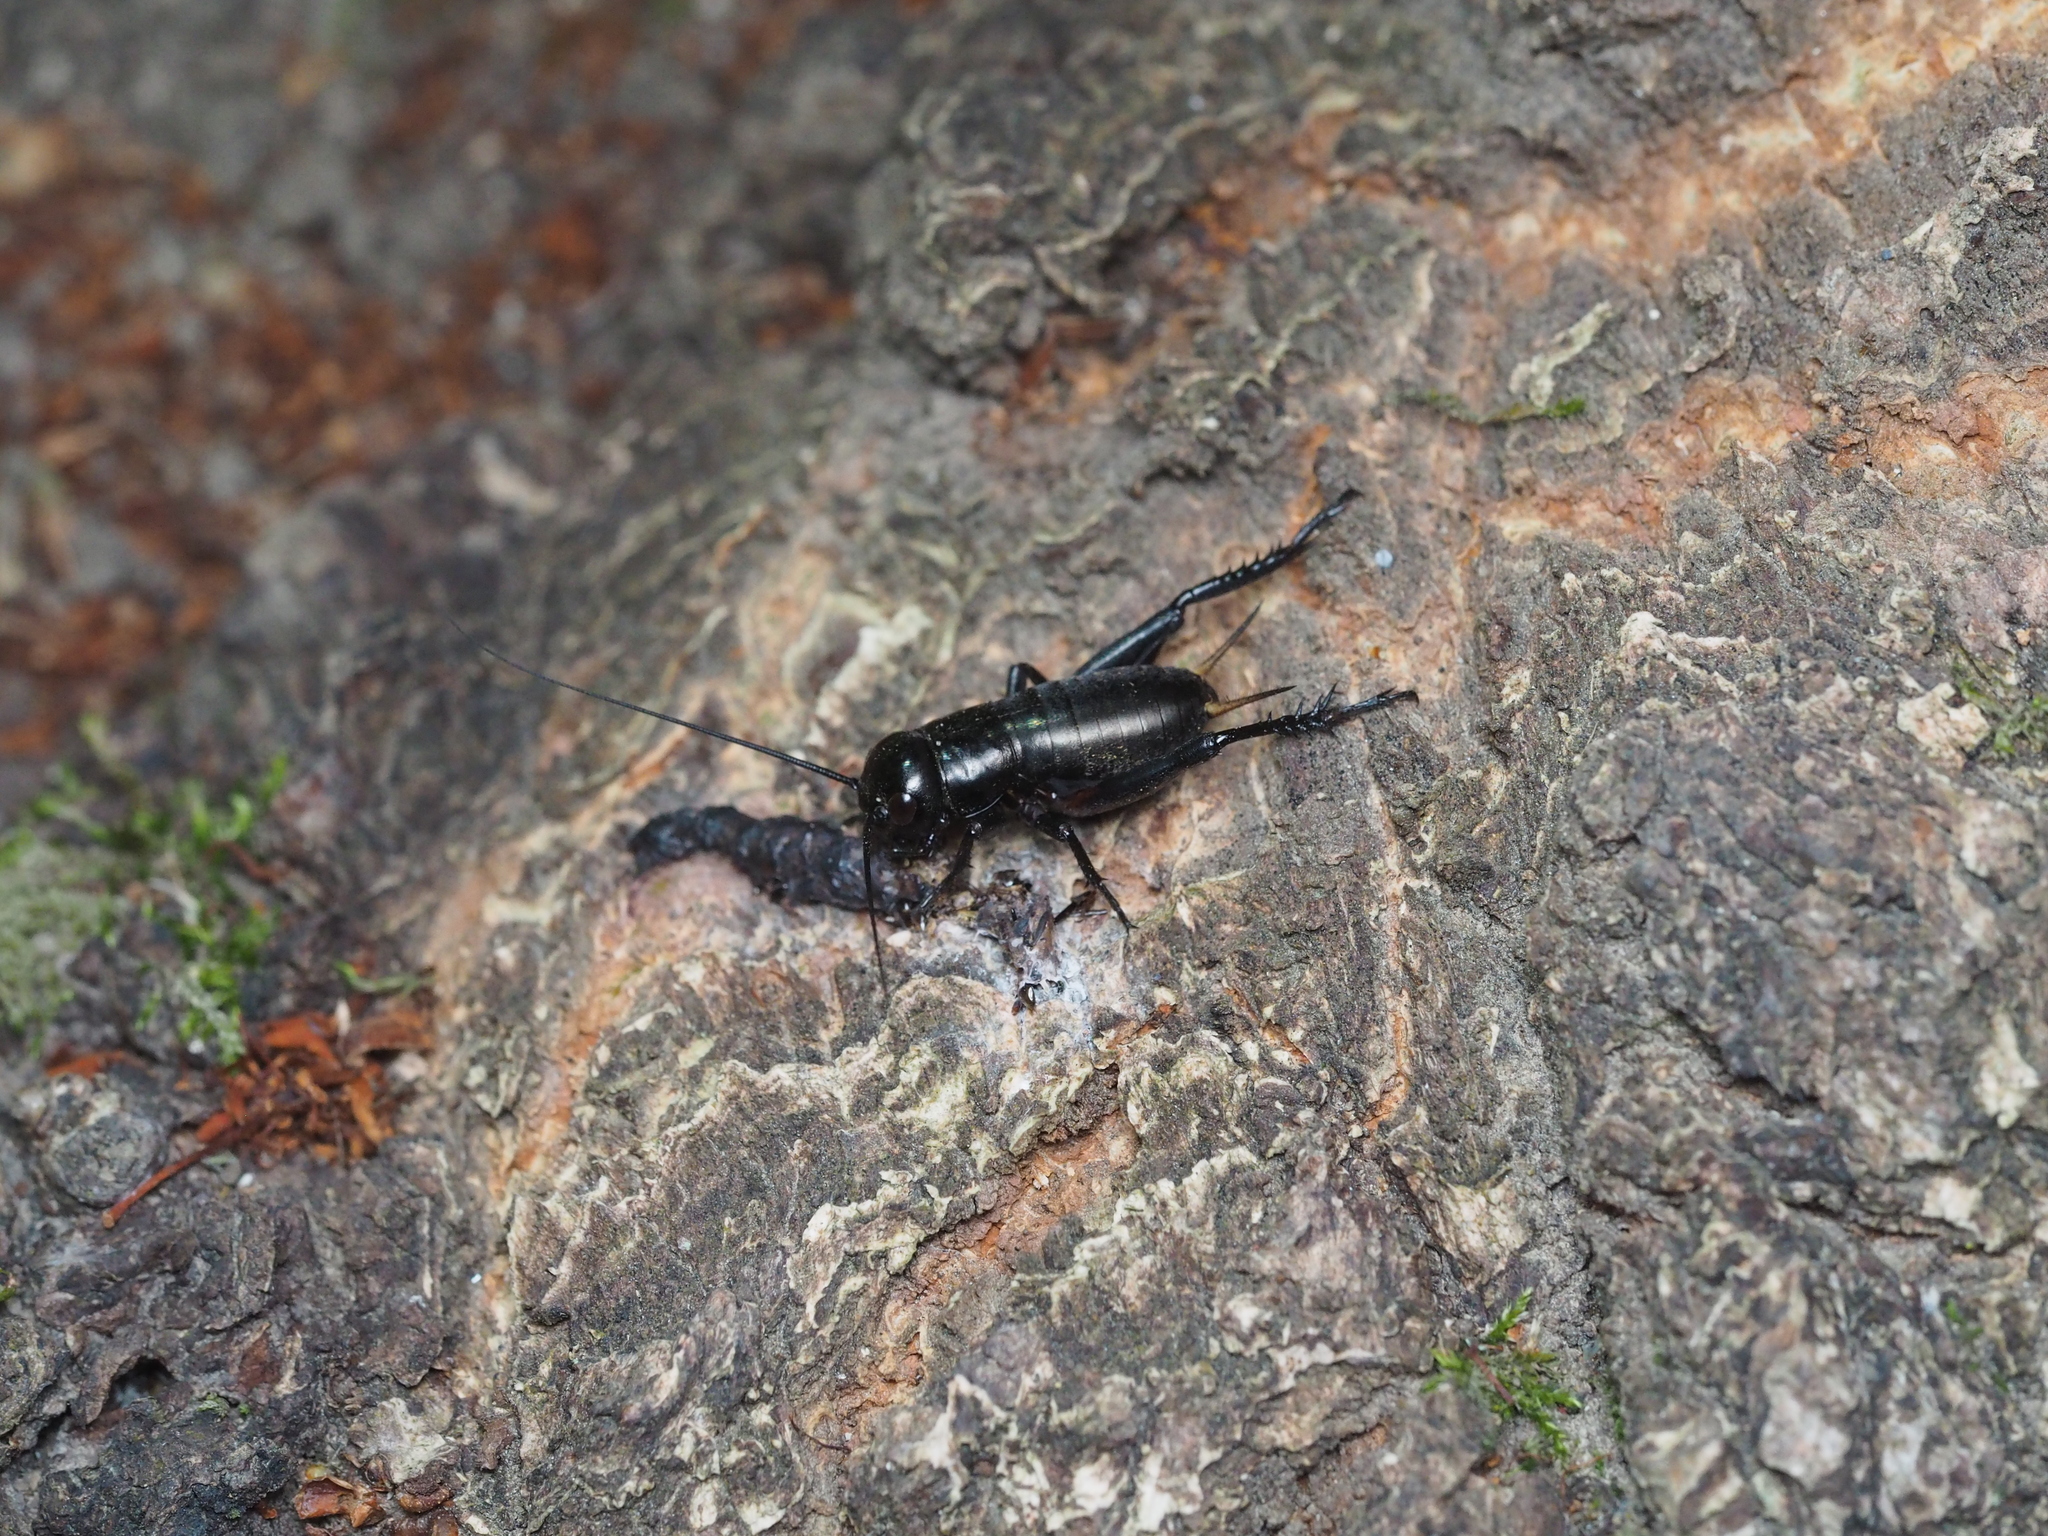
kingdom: Animalia
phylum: Arthropoda
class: Insecta
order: Orthoptera
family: Gryllidae
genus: Gryllus
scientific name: Gryllus campestris
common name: Field cricket
